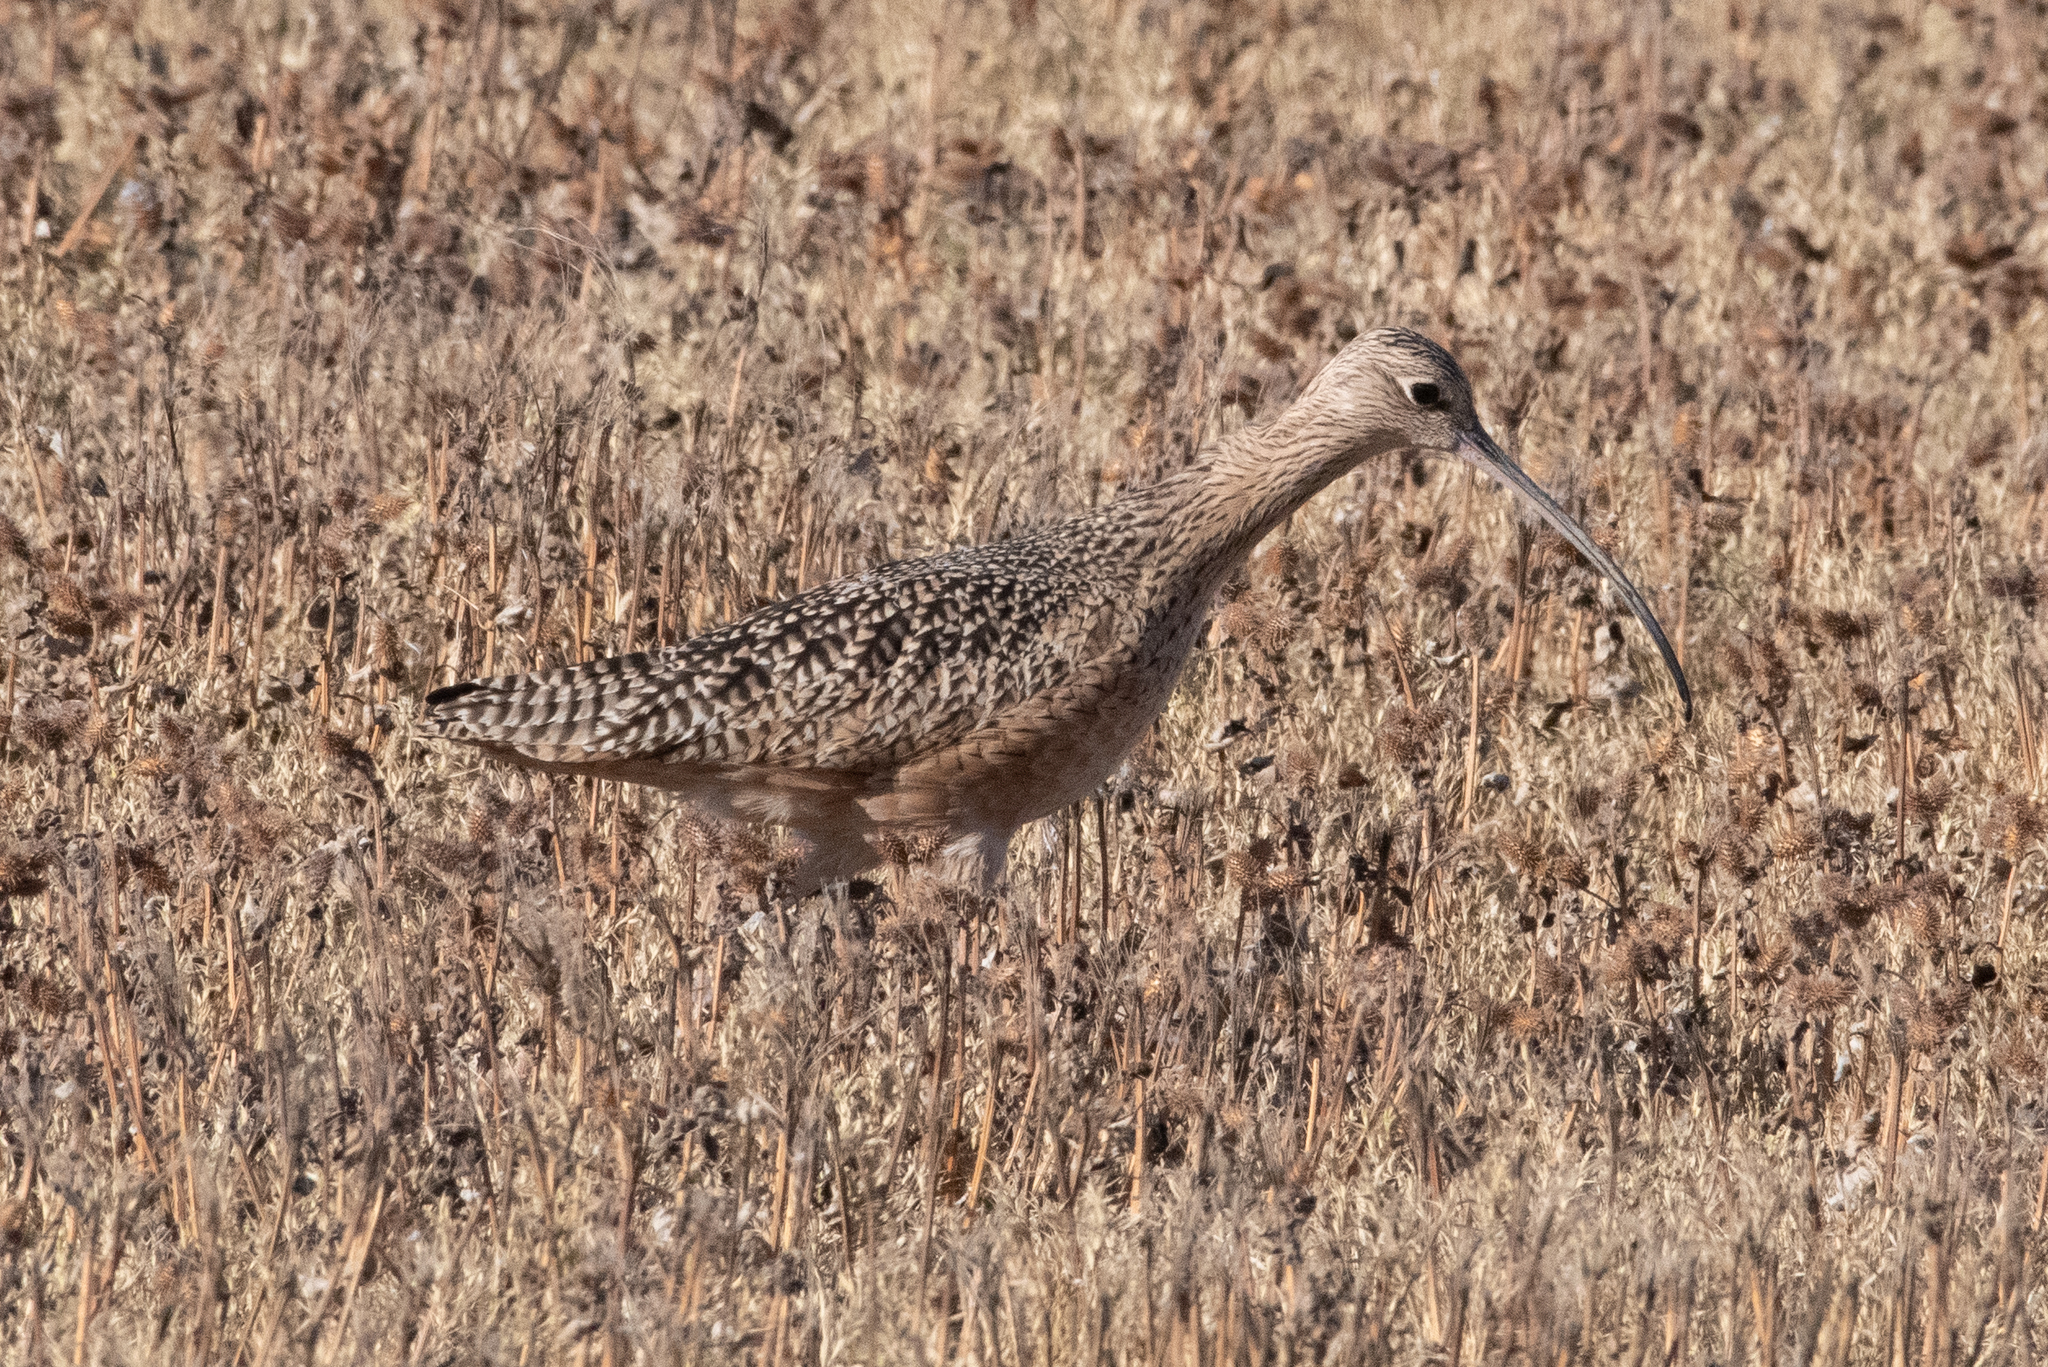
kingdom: Animalia
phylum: Chordata
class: Aves
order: Charadriiformes
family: Scolopacidae
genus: Numenius
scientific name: Numenius americanus
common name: Long-billed curlew
